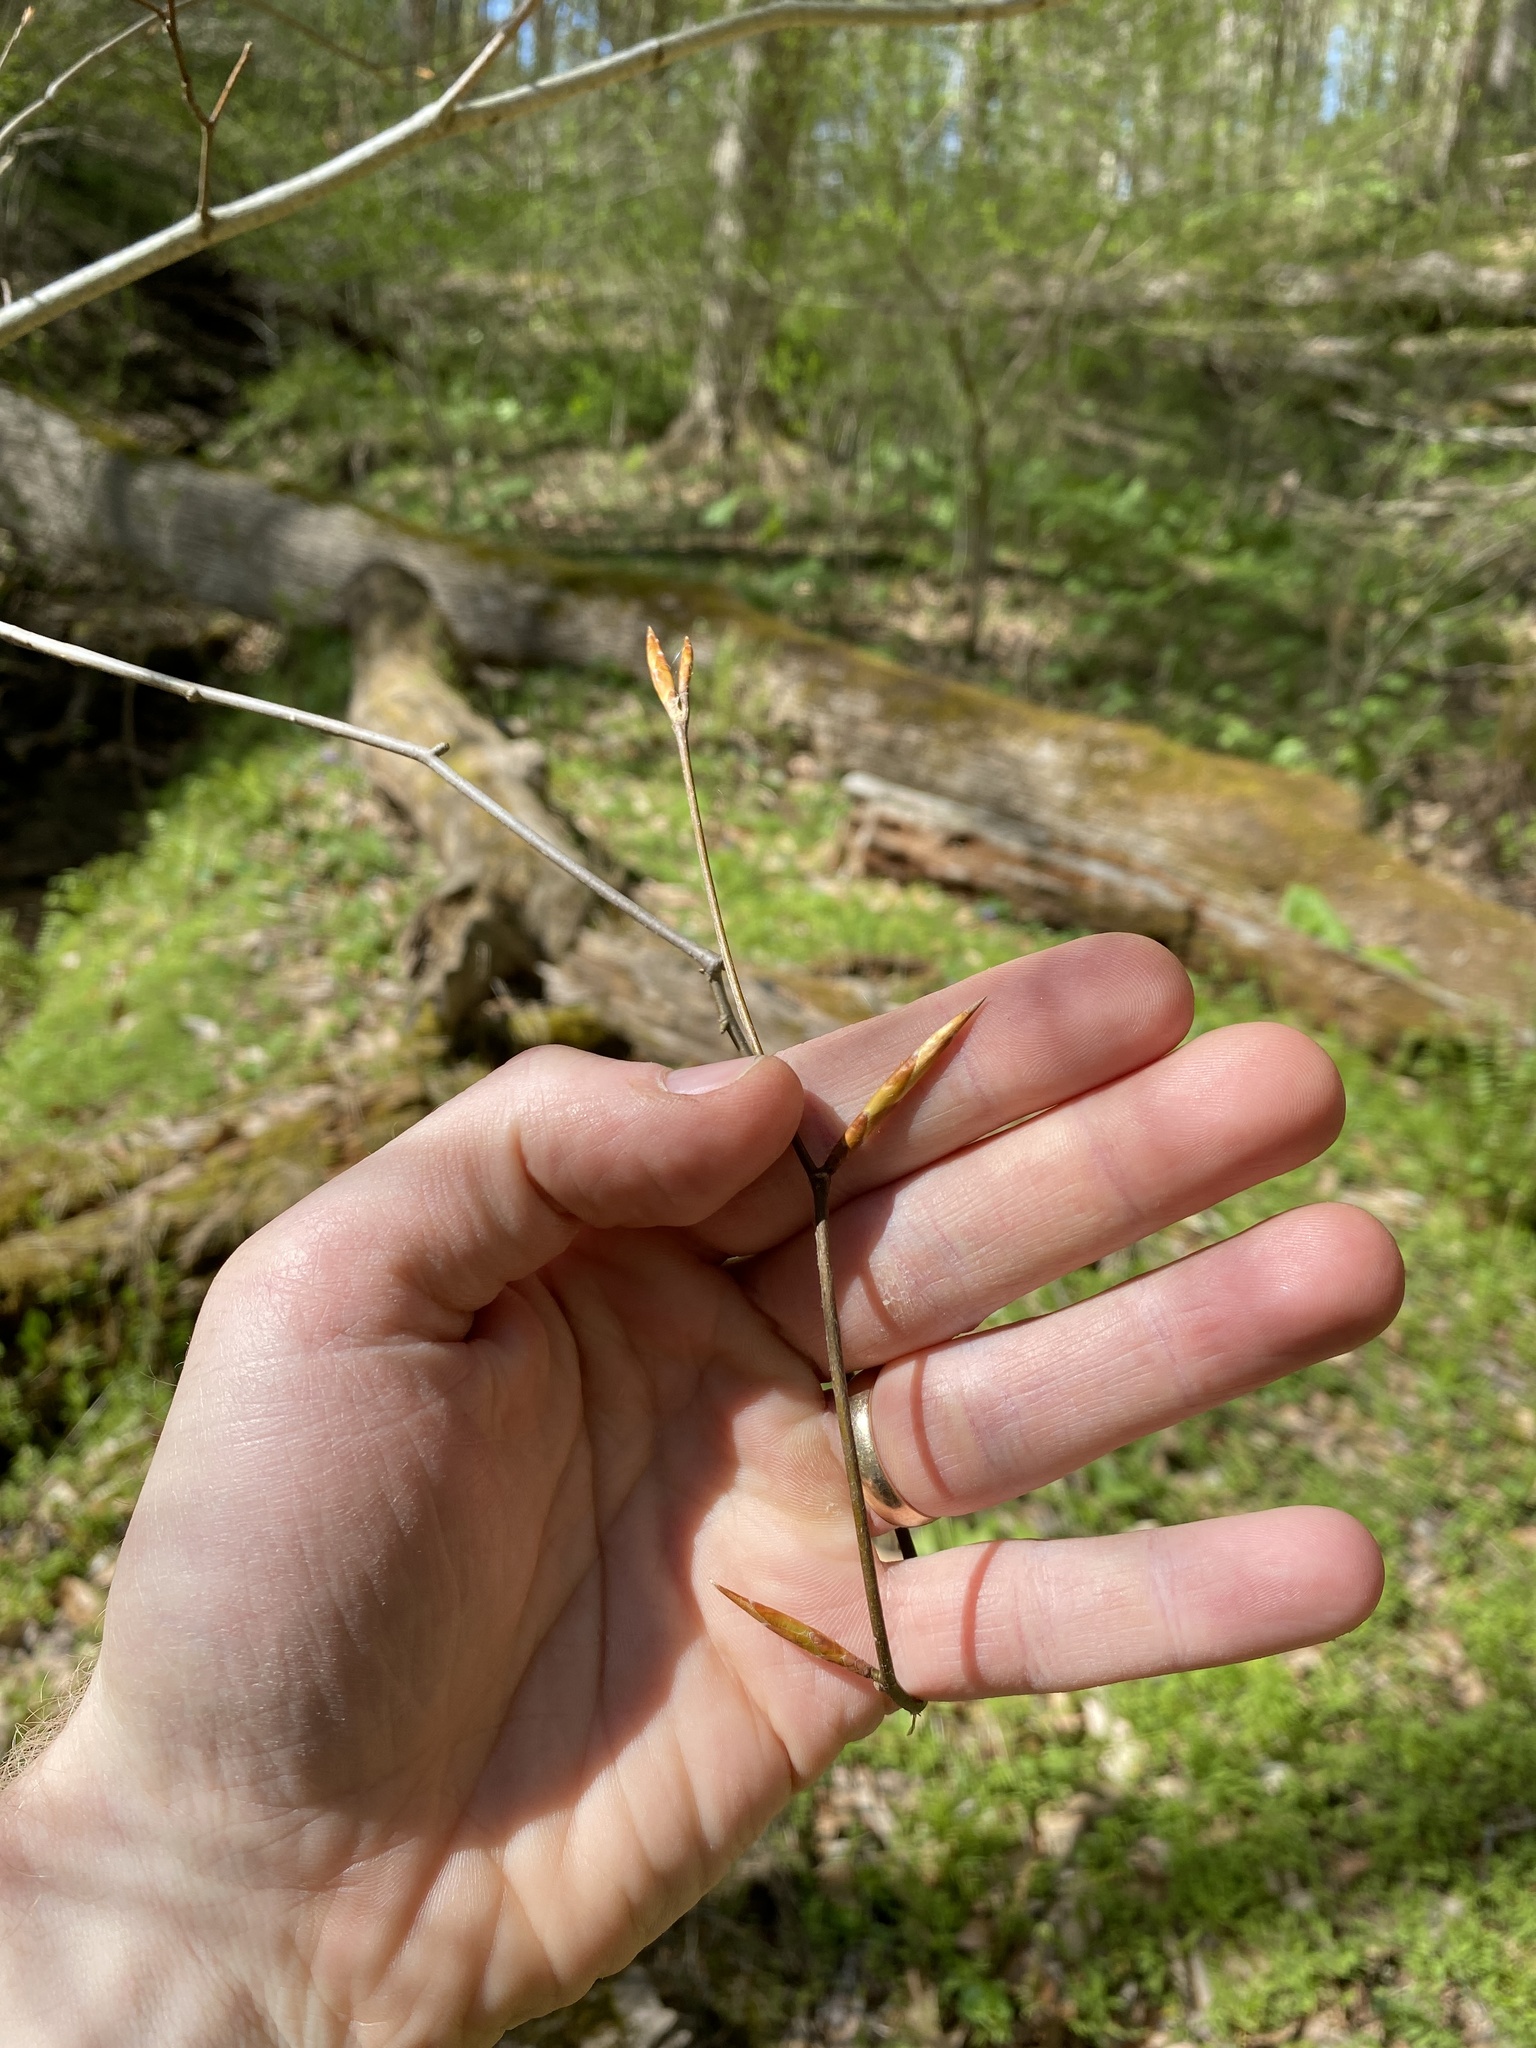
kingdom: Plantae
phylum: Tracheophyta
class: Magnoliopsida
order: Fagales
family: Fagaceae
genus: Fagus
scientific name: Fagus grandifolia
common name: American beech
